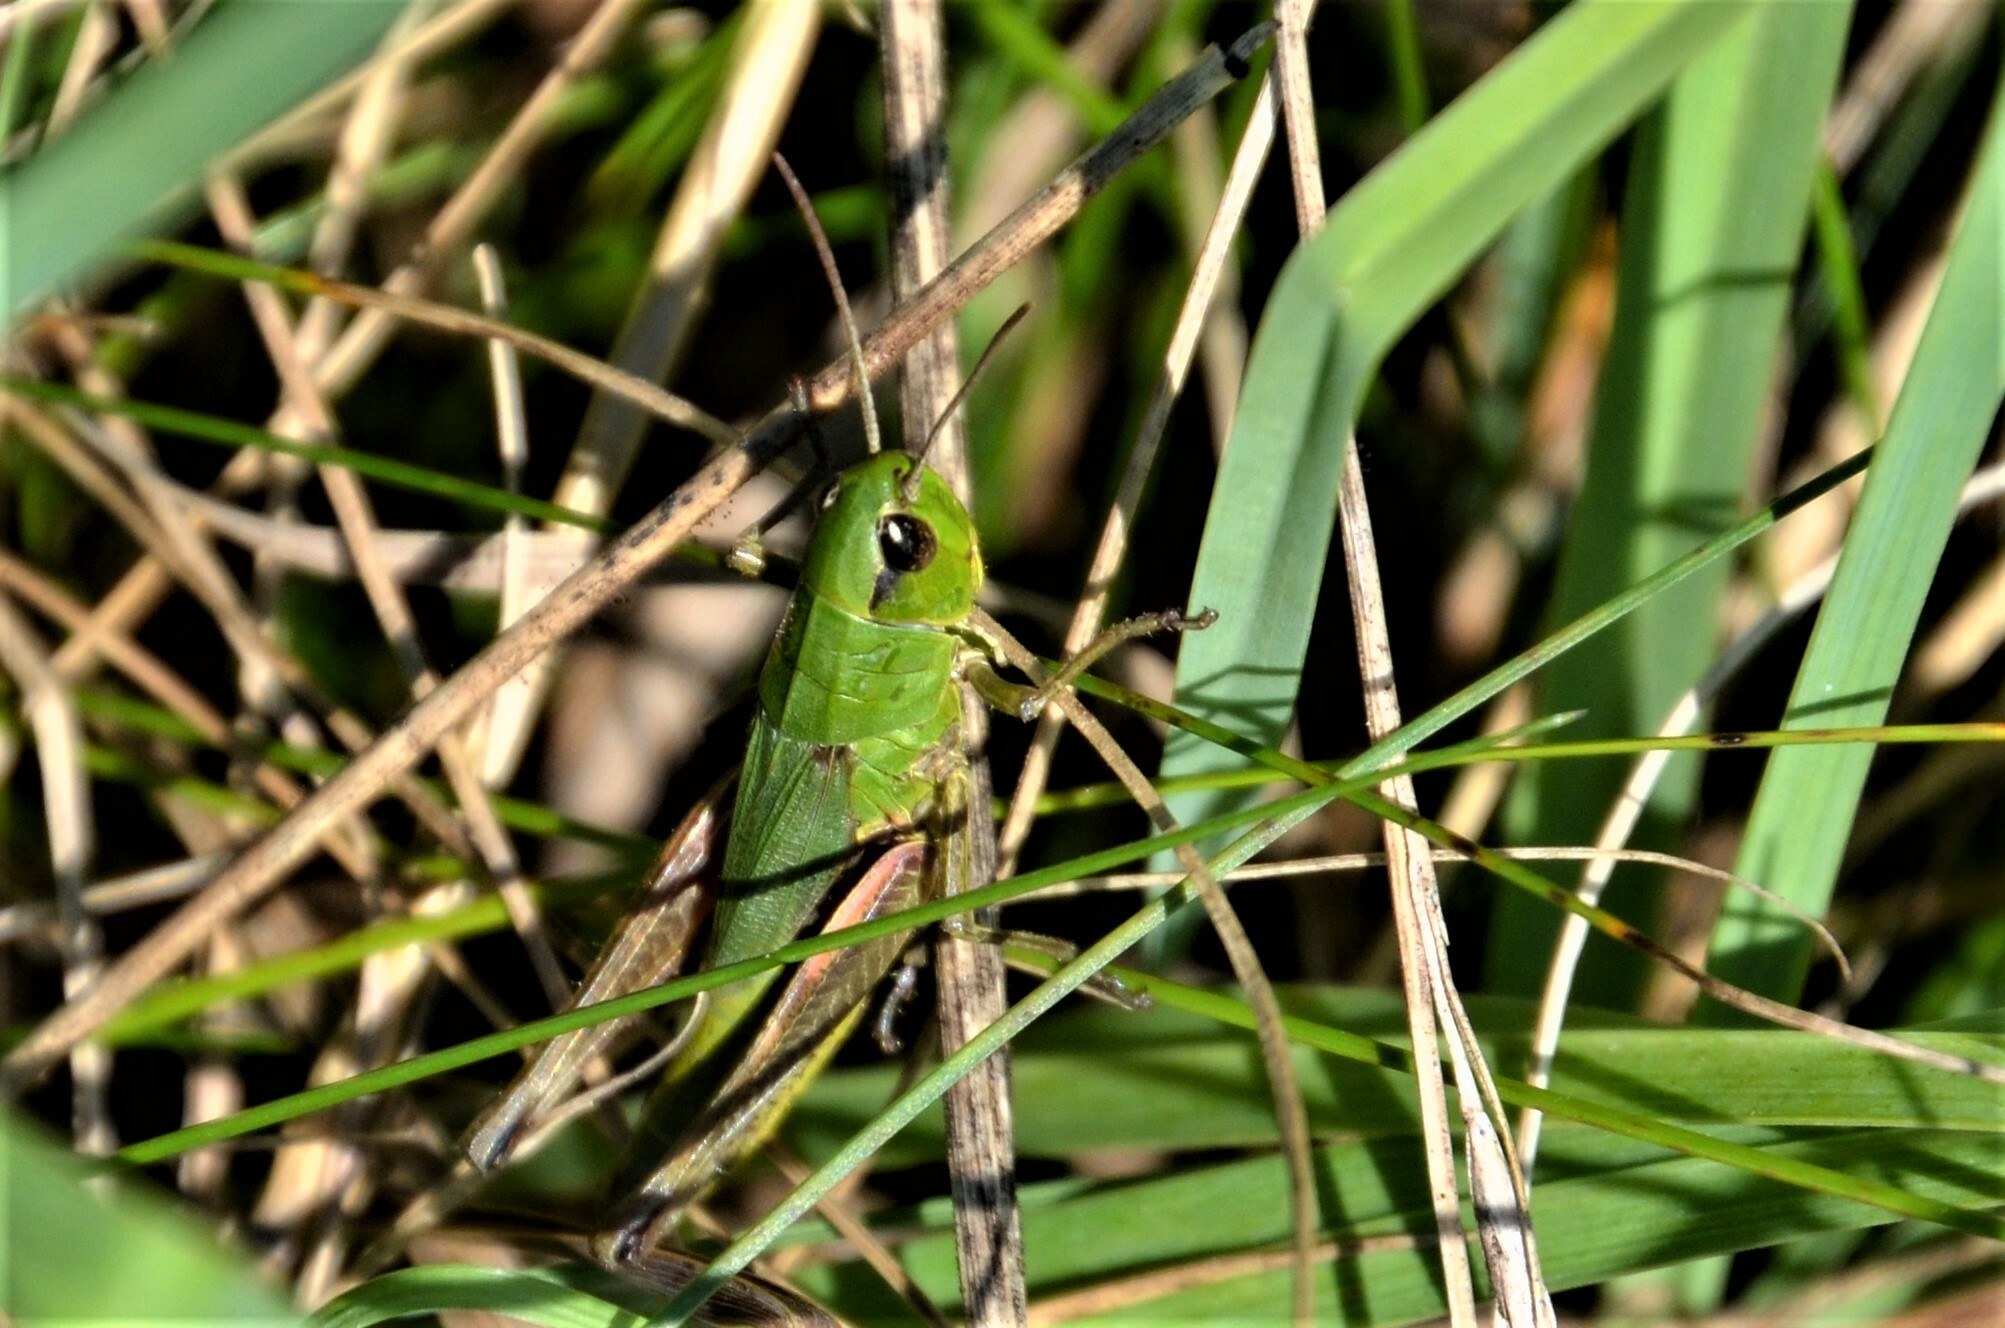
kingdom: Animalia
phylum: Arthropoda
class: Insecta
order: Orthoptera
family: Acrididae
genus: Pseudochorthippus
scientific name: Pseudochorthippus parallelus
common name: Meadow grasshopper
